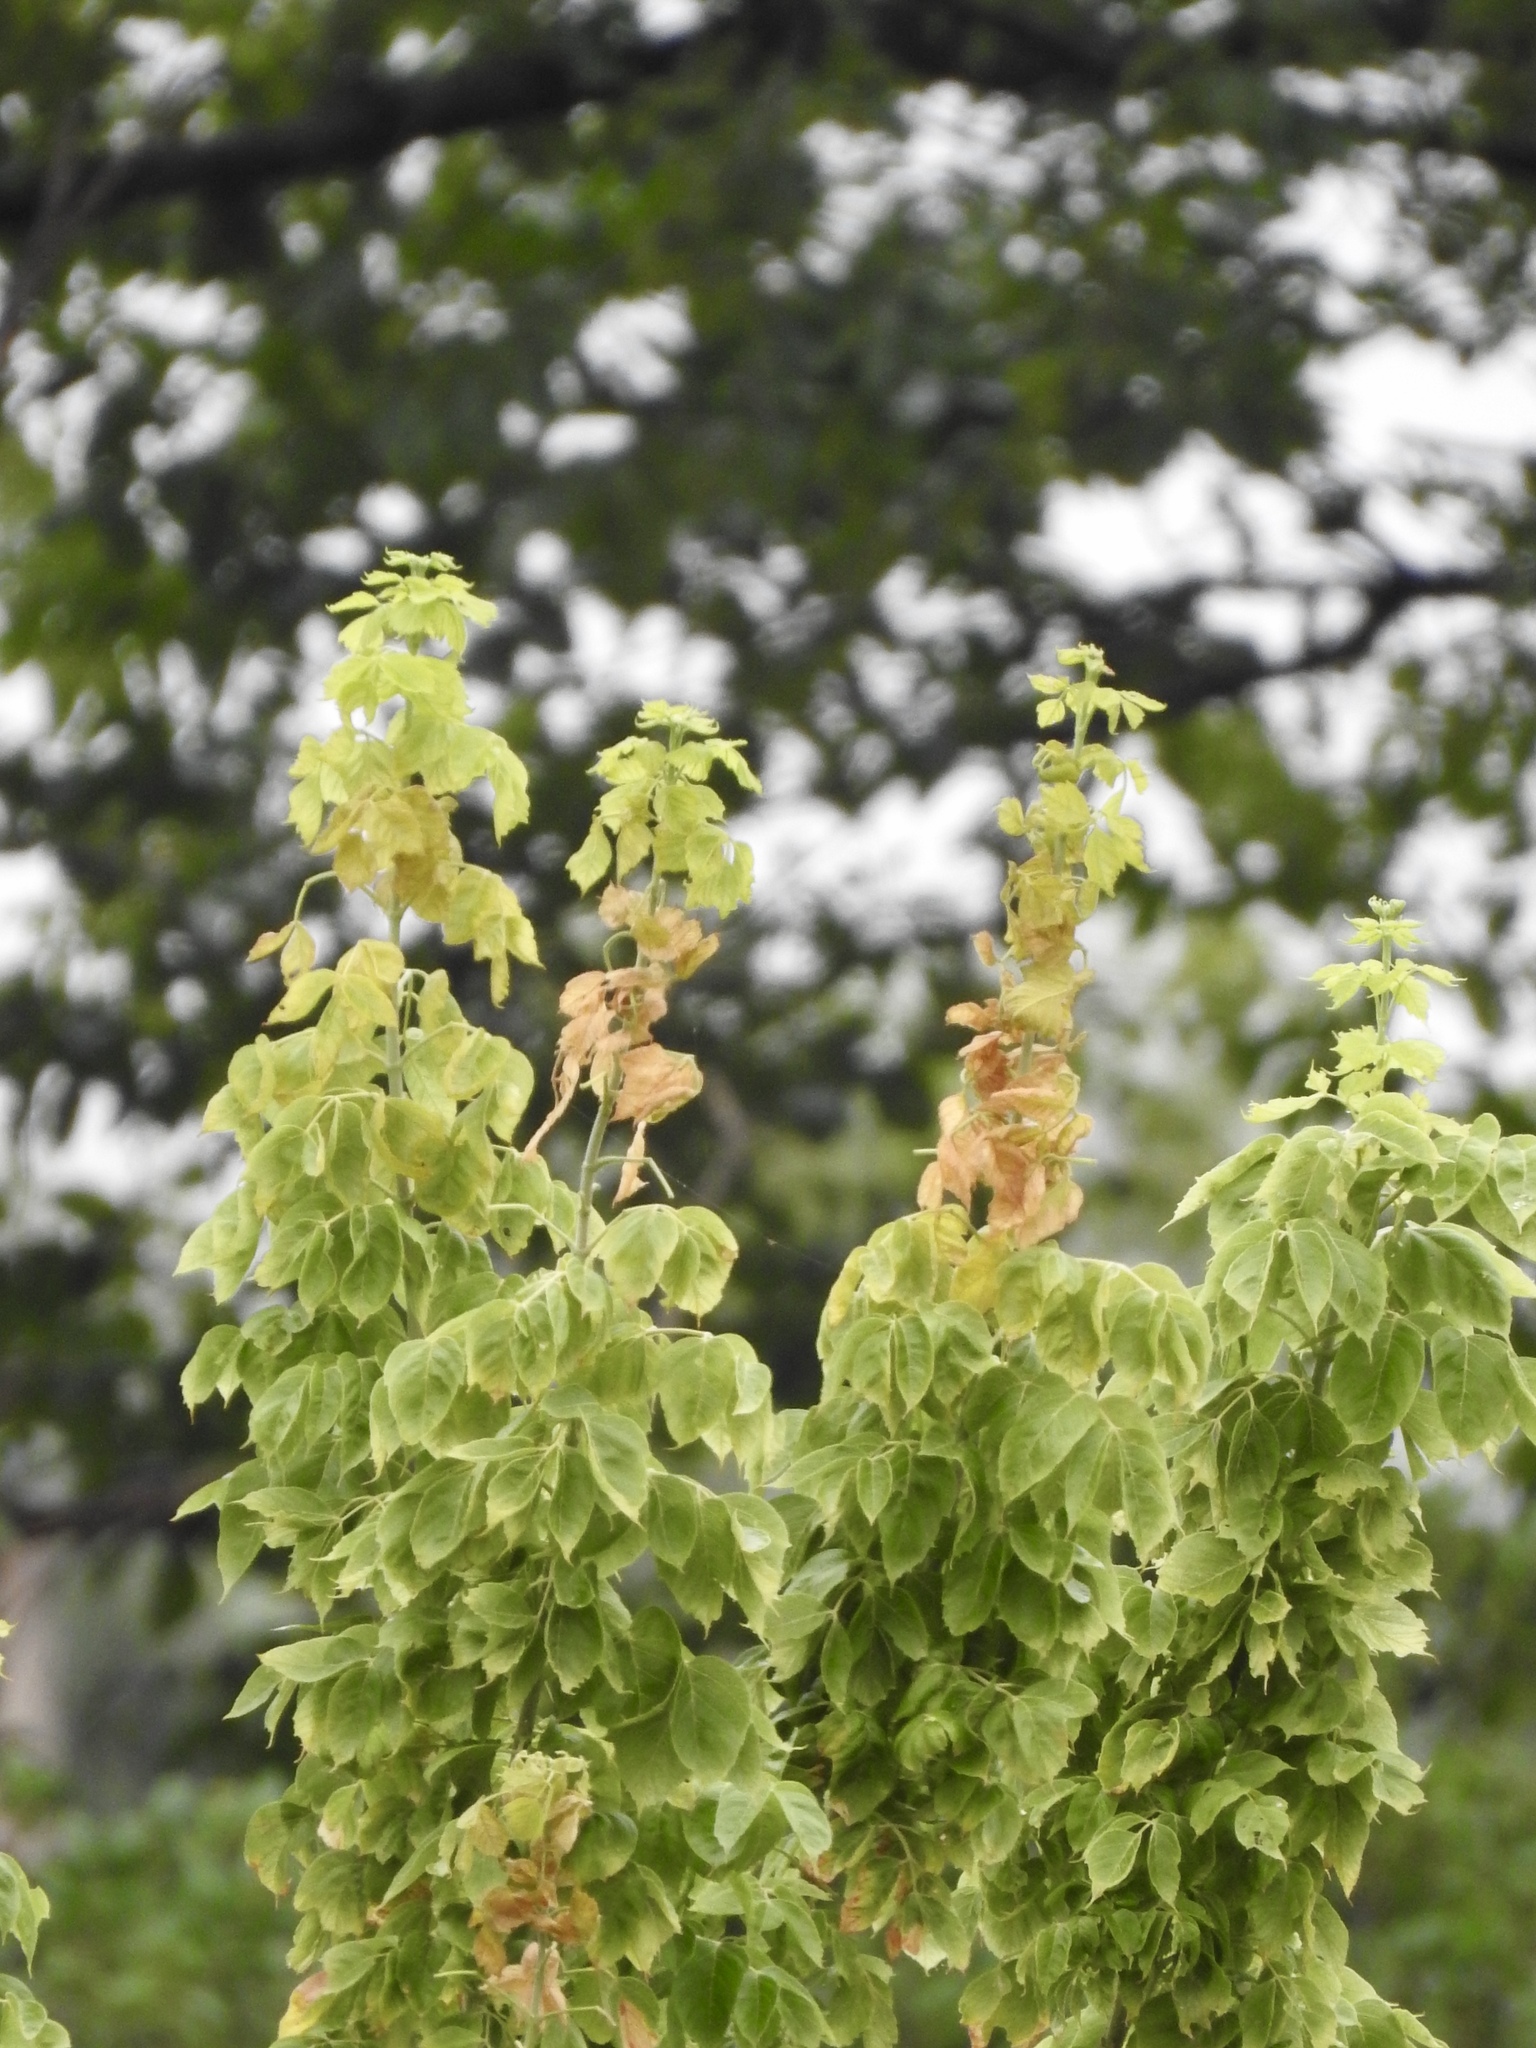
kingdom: Plantae
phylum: Tracheophyta
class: Magnoliopsida
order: Sapindales
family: Sapindaceae
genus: Acer
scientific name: Acer negundo
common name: Ashleaf maple
